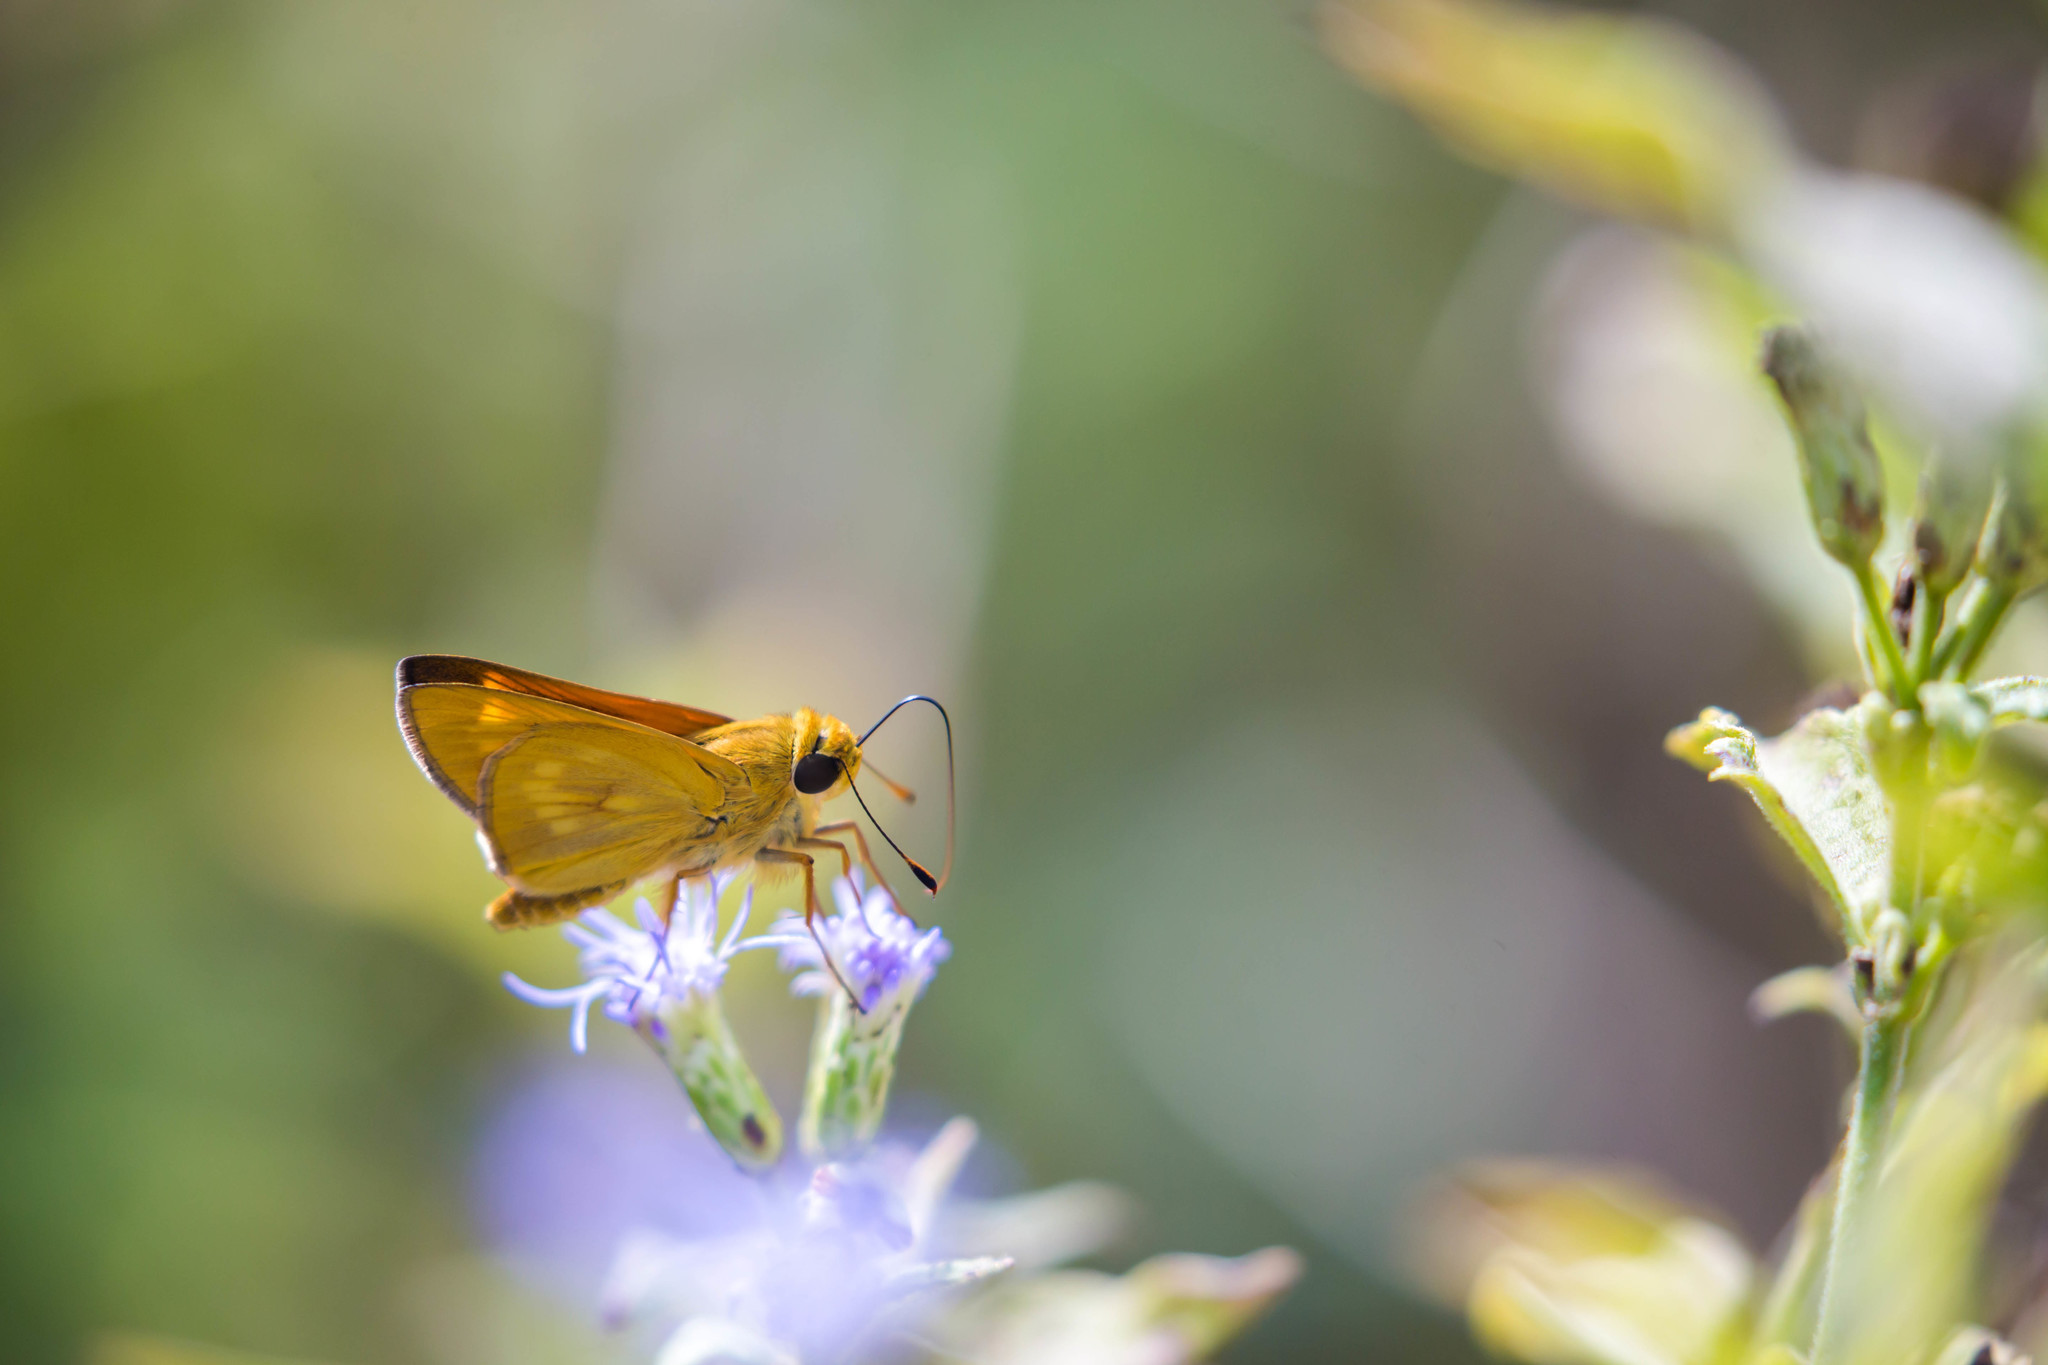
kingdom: Animalia
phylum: Arthropoda
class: Insecta
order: Lepidoptera
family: Hesperiidae
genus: Mellana
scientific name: Mellana eulogius
